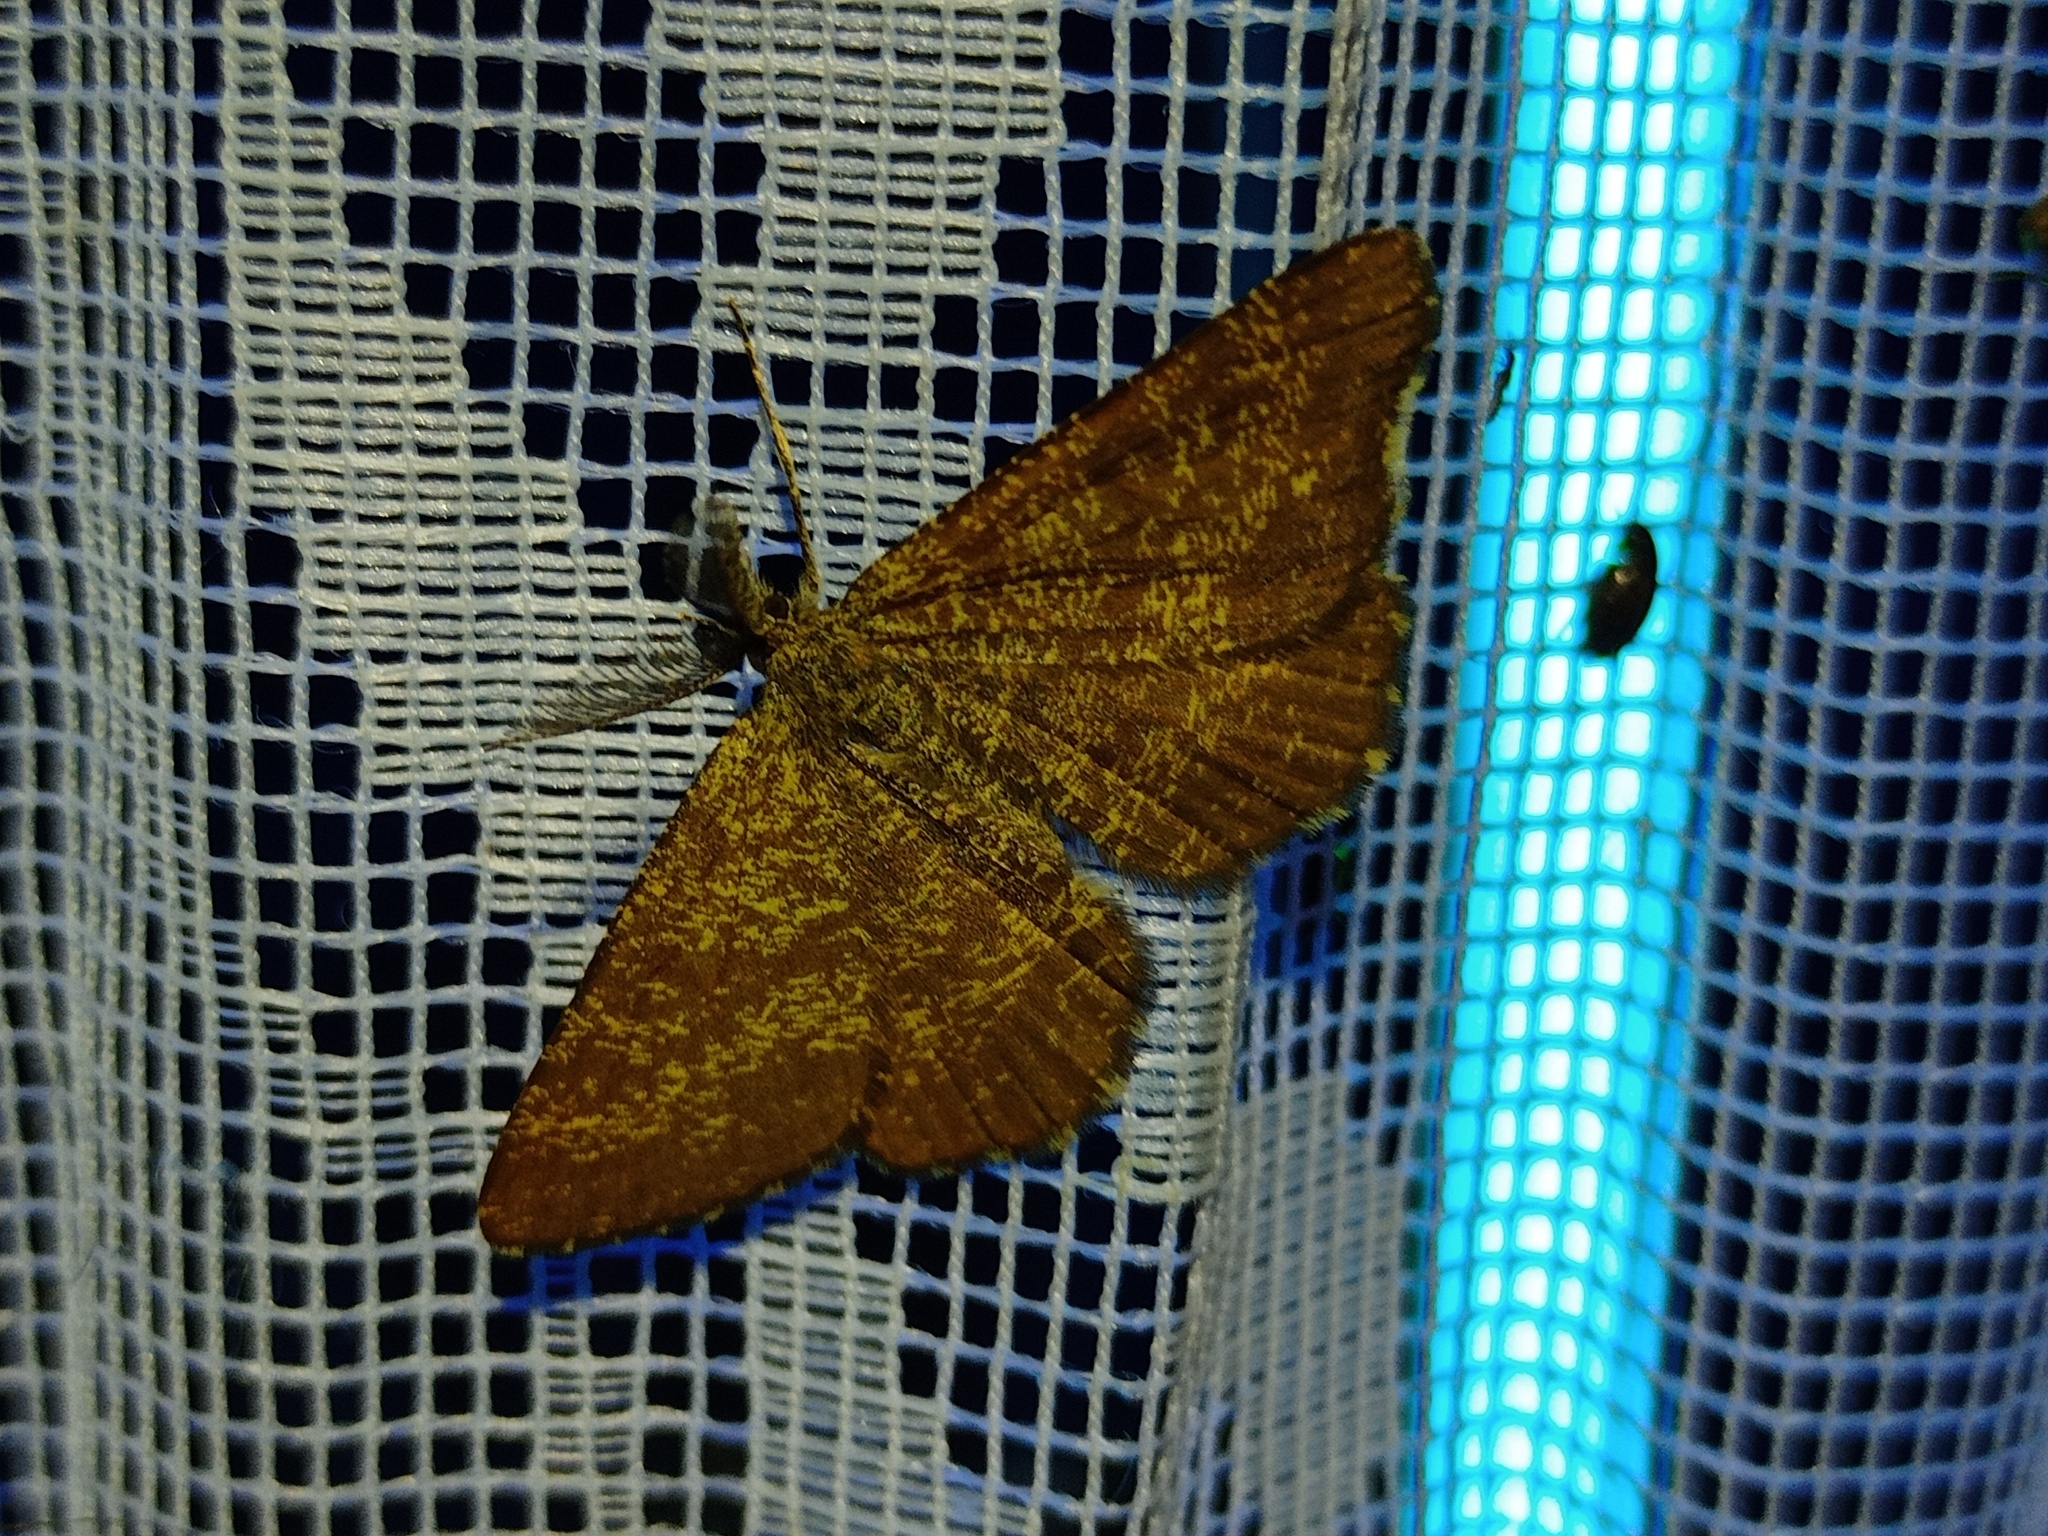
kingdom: Animalia
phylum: Arthropoda
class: Insecta
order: Lepidoptera
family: Geometridae
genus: Ematurga
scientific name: Ematurga atomaria
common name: Common heath
